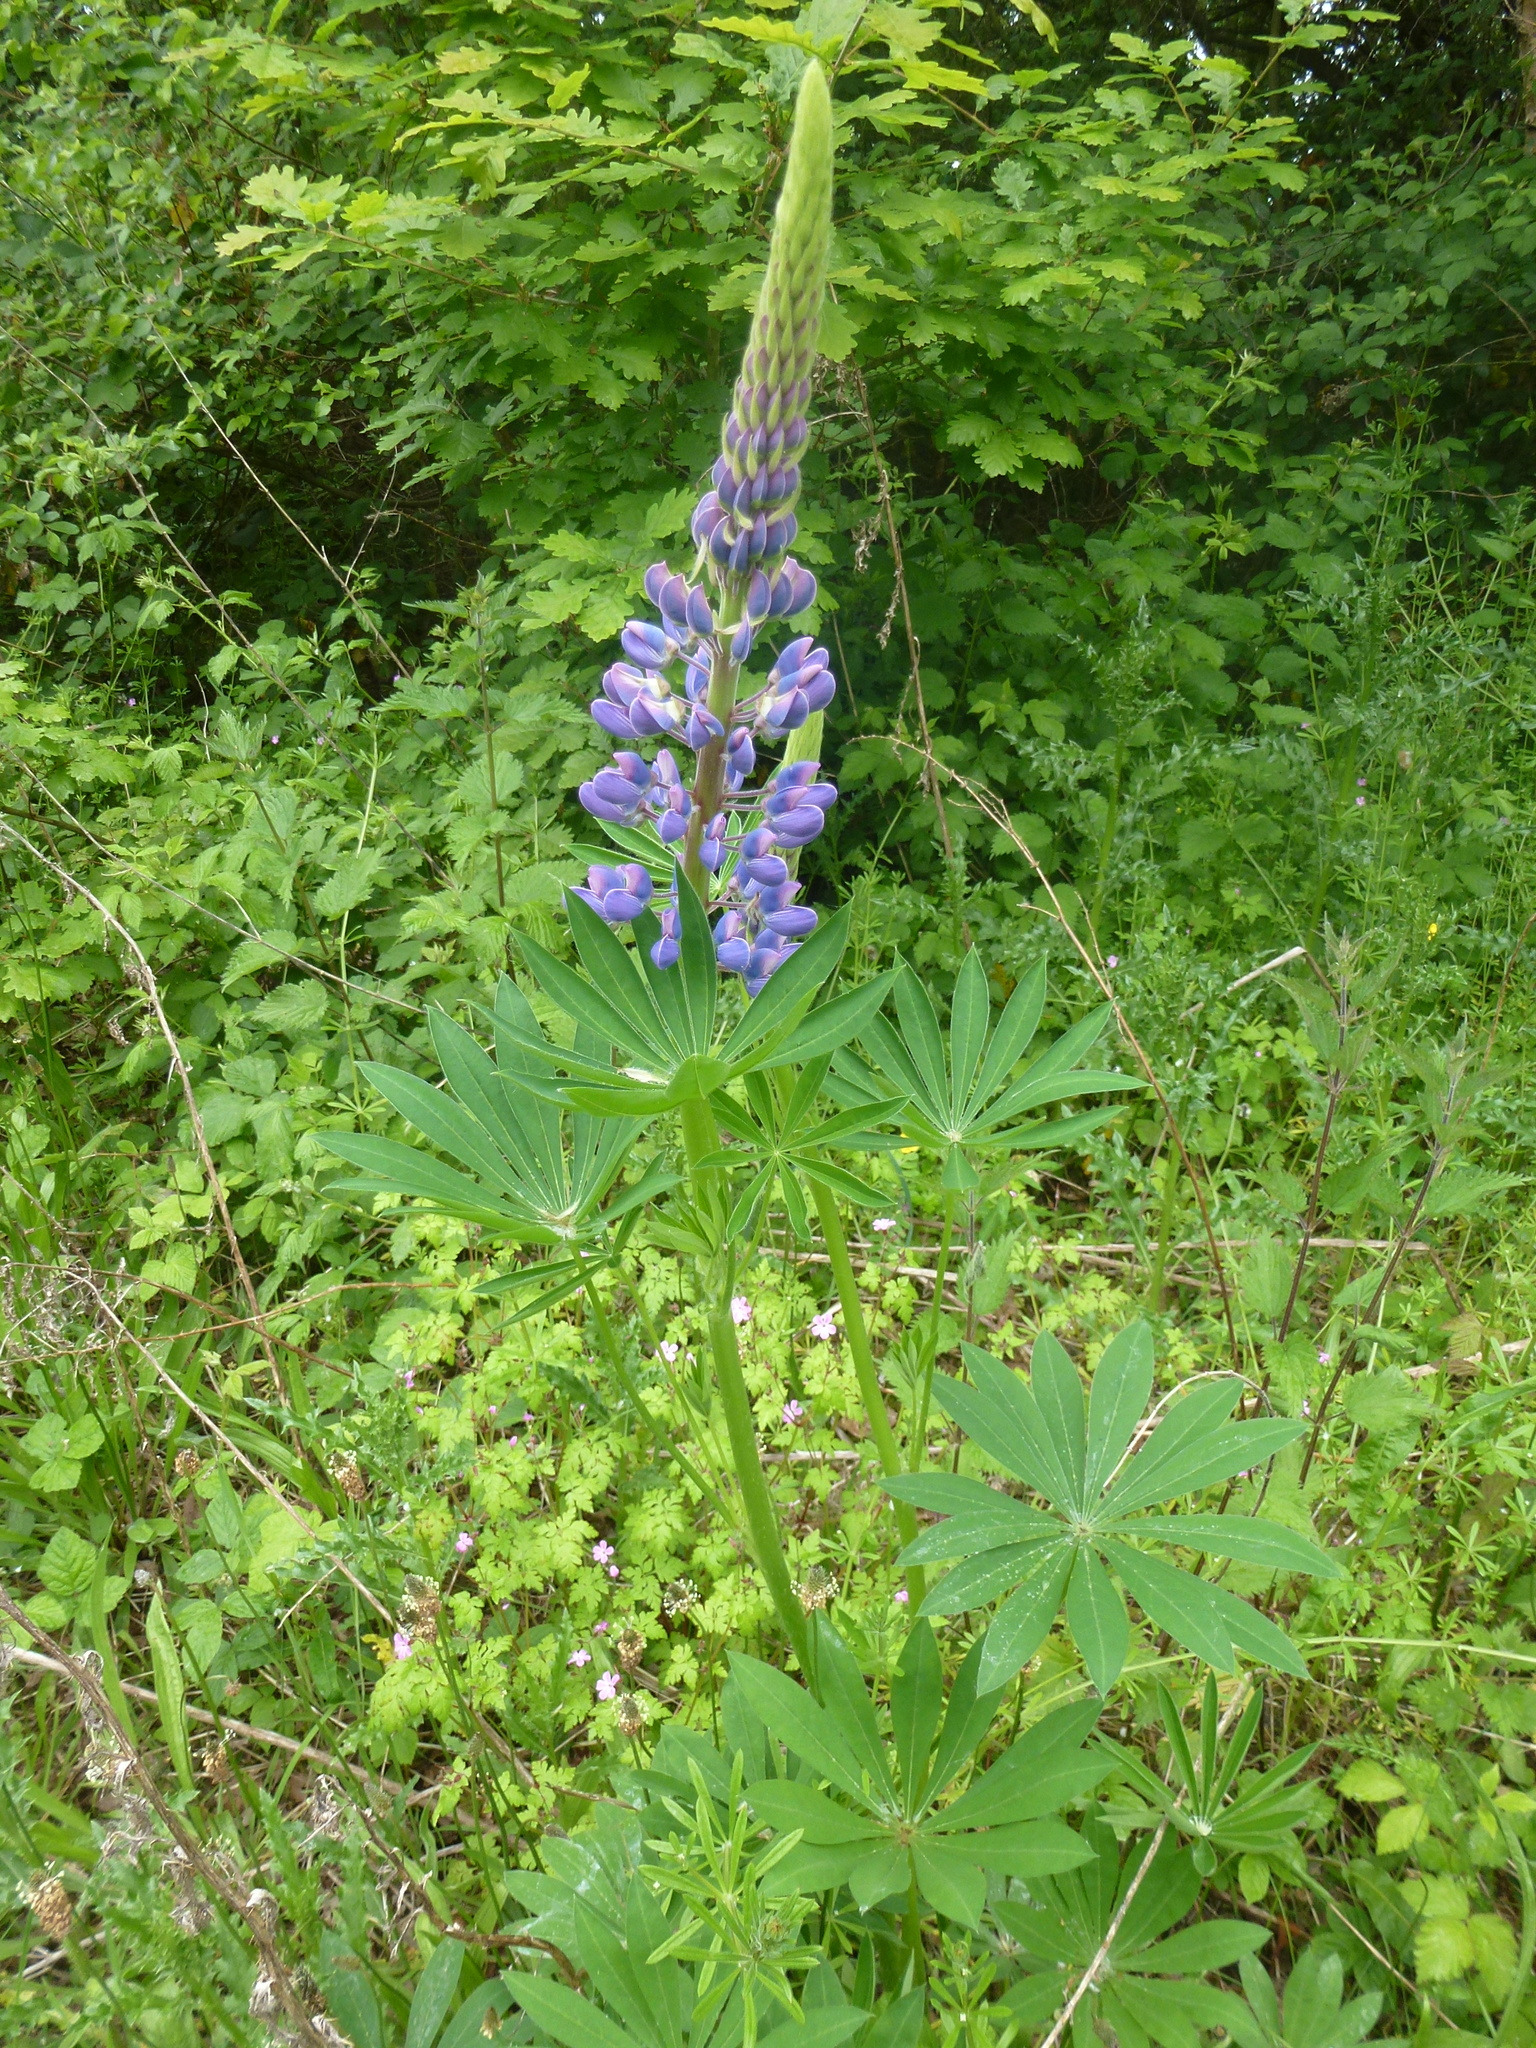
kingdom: Plantae
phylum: Tracheophyta
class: Magnoliopsida
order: Fabales
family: Fabaceae
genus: Lupinus
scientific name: Lupinus regalis
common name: Russell lupin
